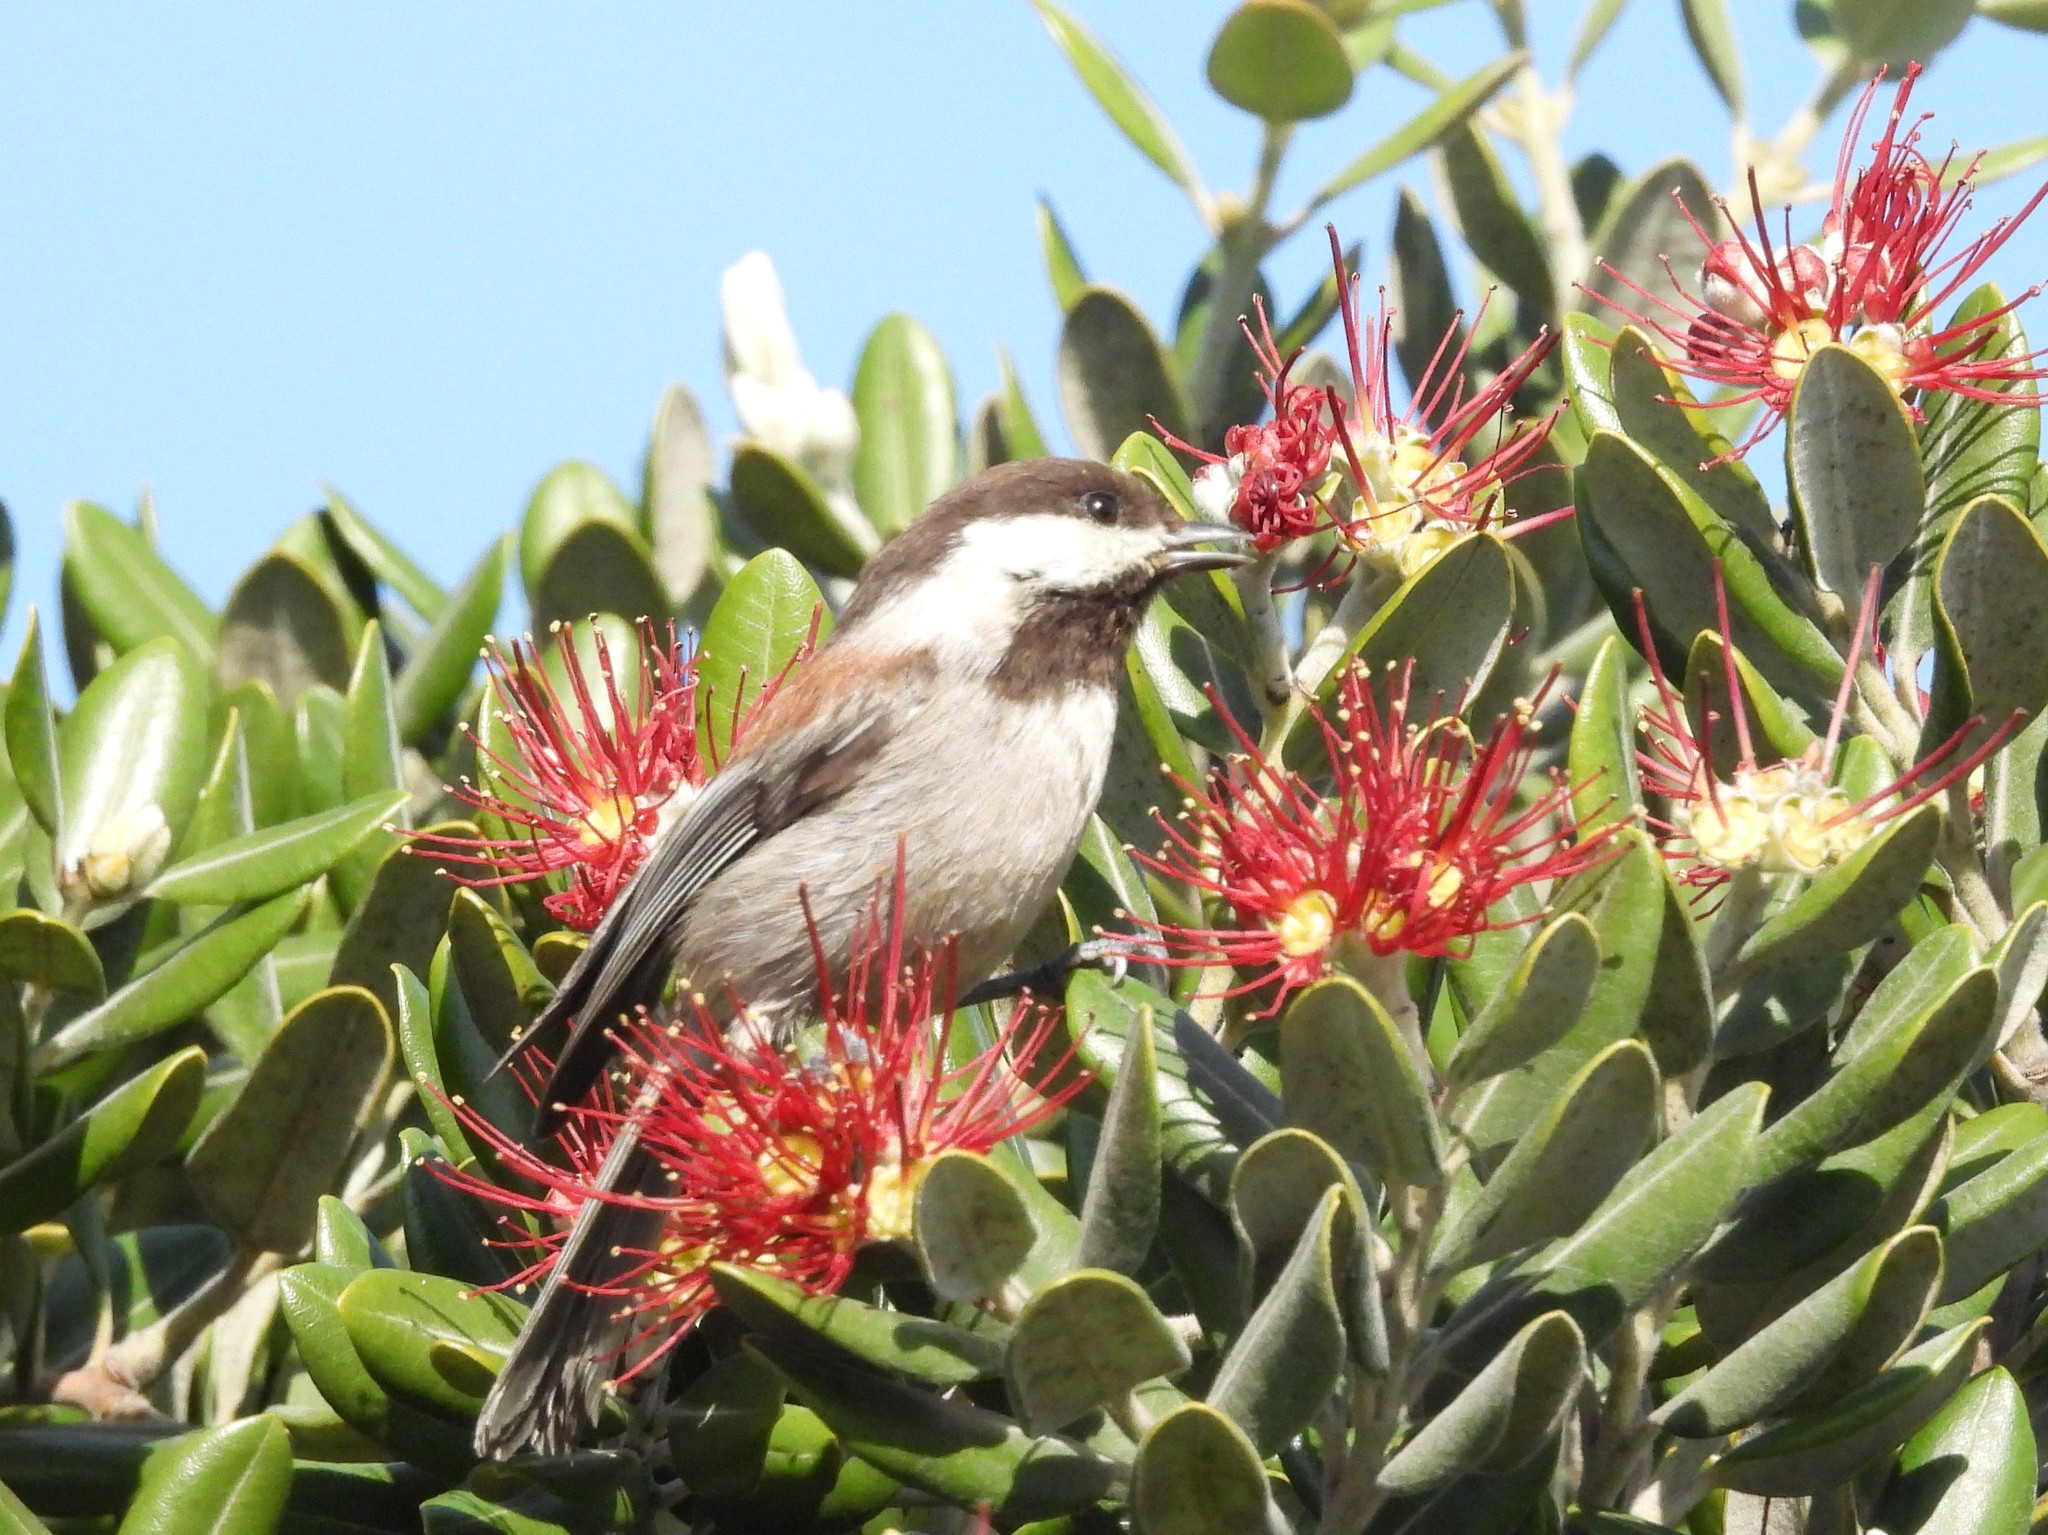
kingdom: Animalia
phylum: Chordata
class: Aves
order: Passeriformes
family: Paridae
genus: Poecile
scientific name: Poecile rufescens
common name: Chestnut-backed chickadee
